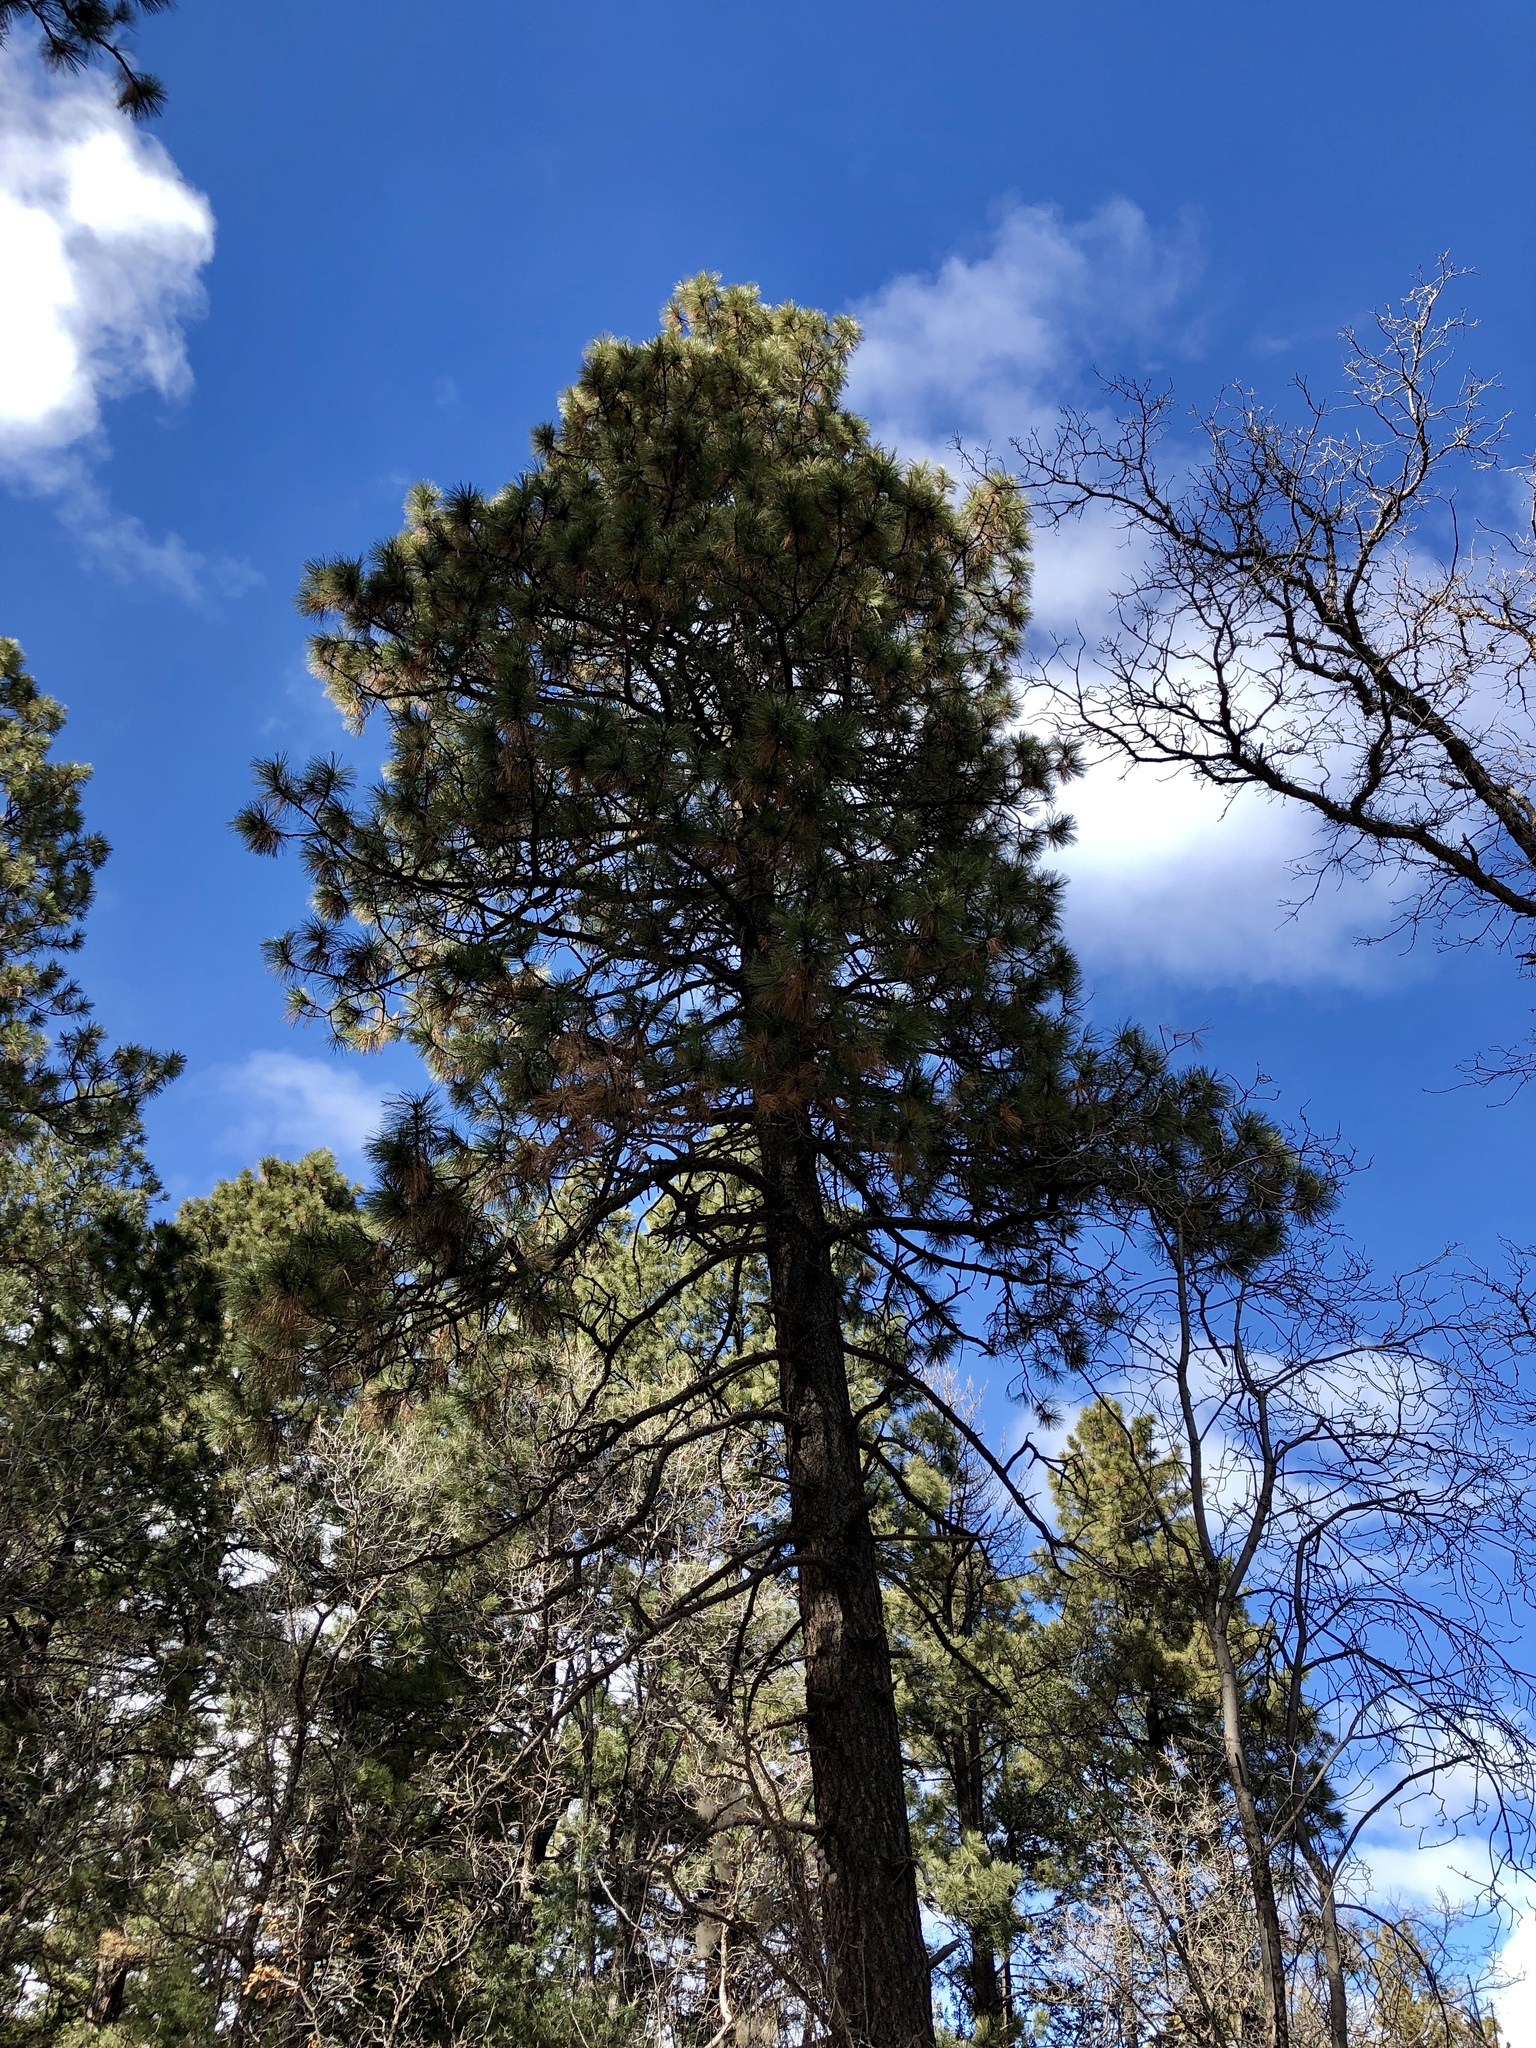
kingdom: Plantae
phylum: Tracheophyta
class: Pinopsida
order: Pinales
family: Pinaceae
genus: Pinus
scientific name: Pinus ponderosa
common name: Western yellow-pine
